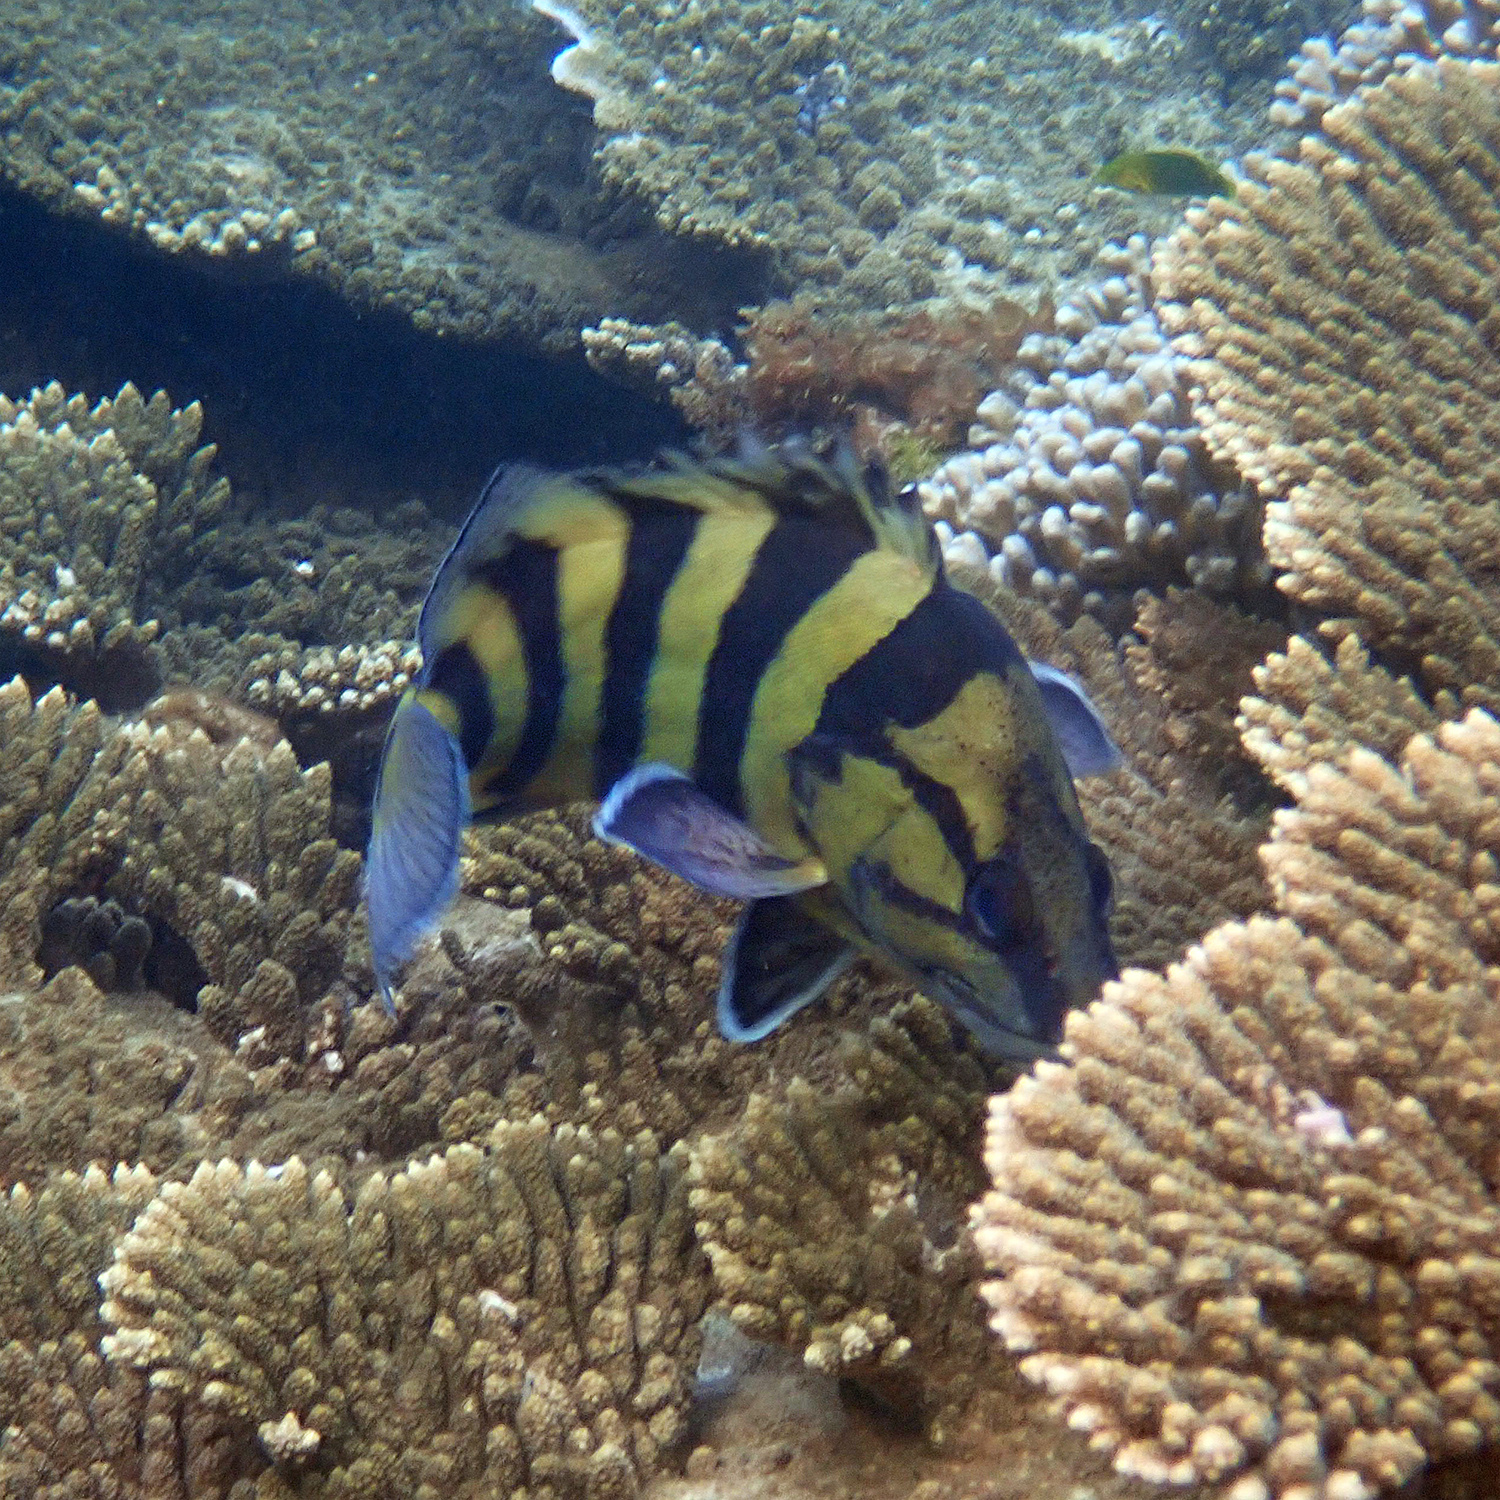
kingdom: Animalia
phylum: Chordata
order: Perciformes
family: Serranidae
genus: Acanthistius
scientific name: Acanthistius cinctus
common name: Girdled rock cod
